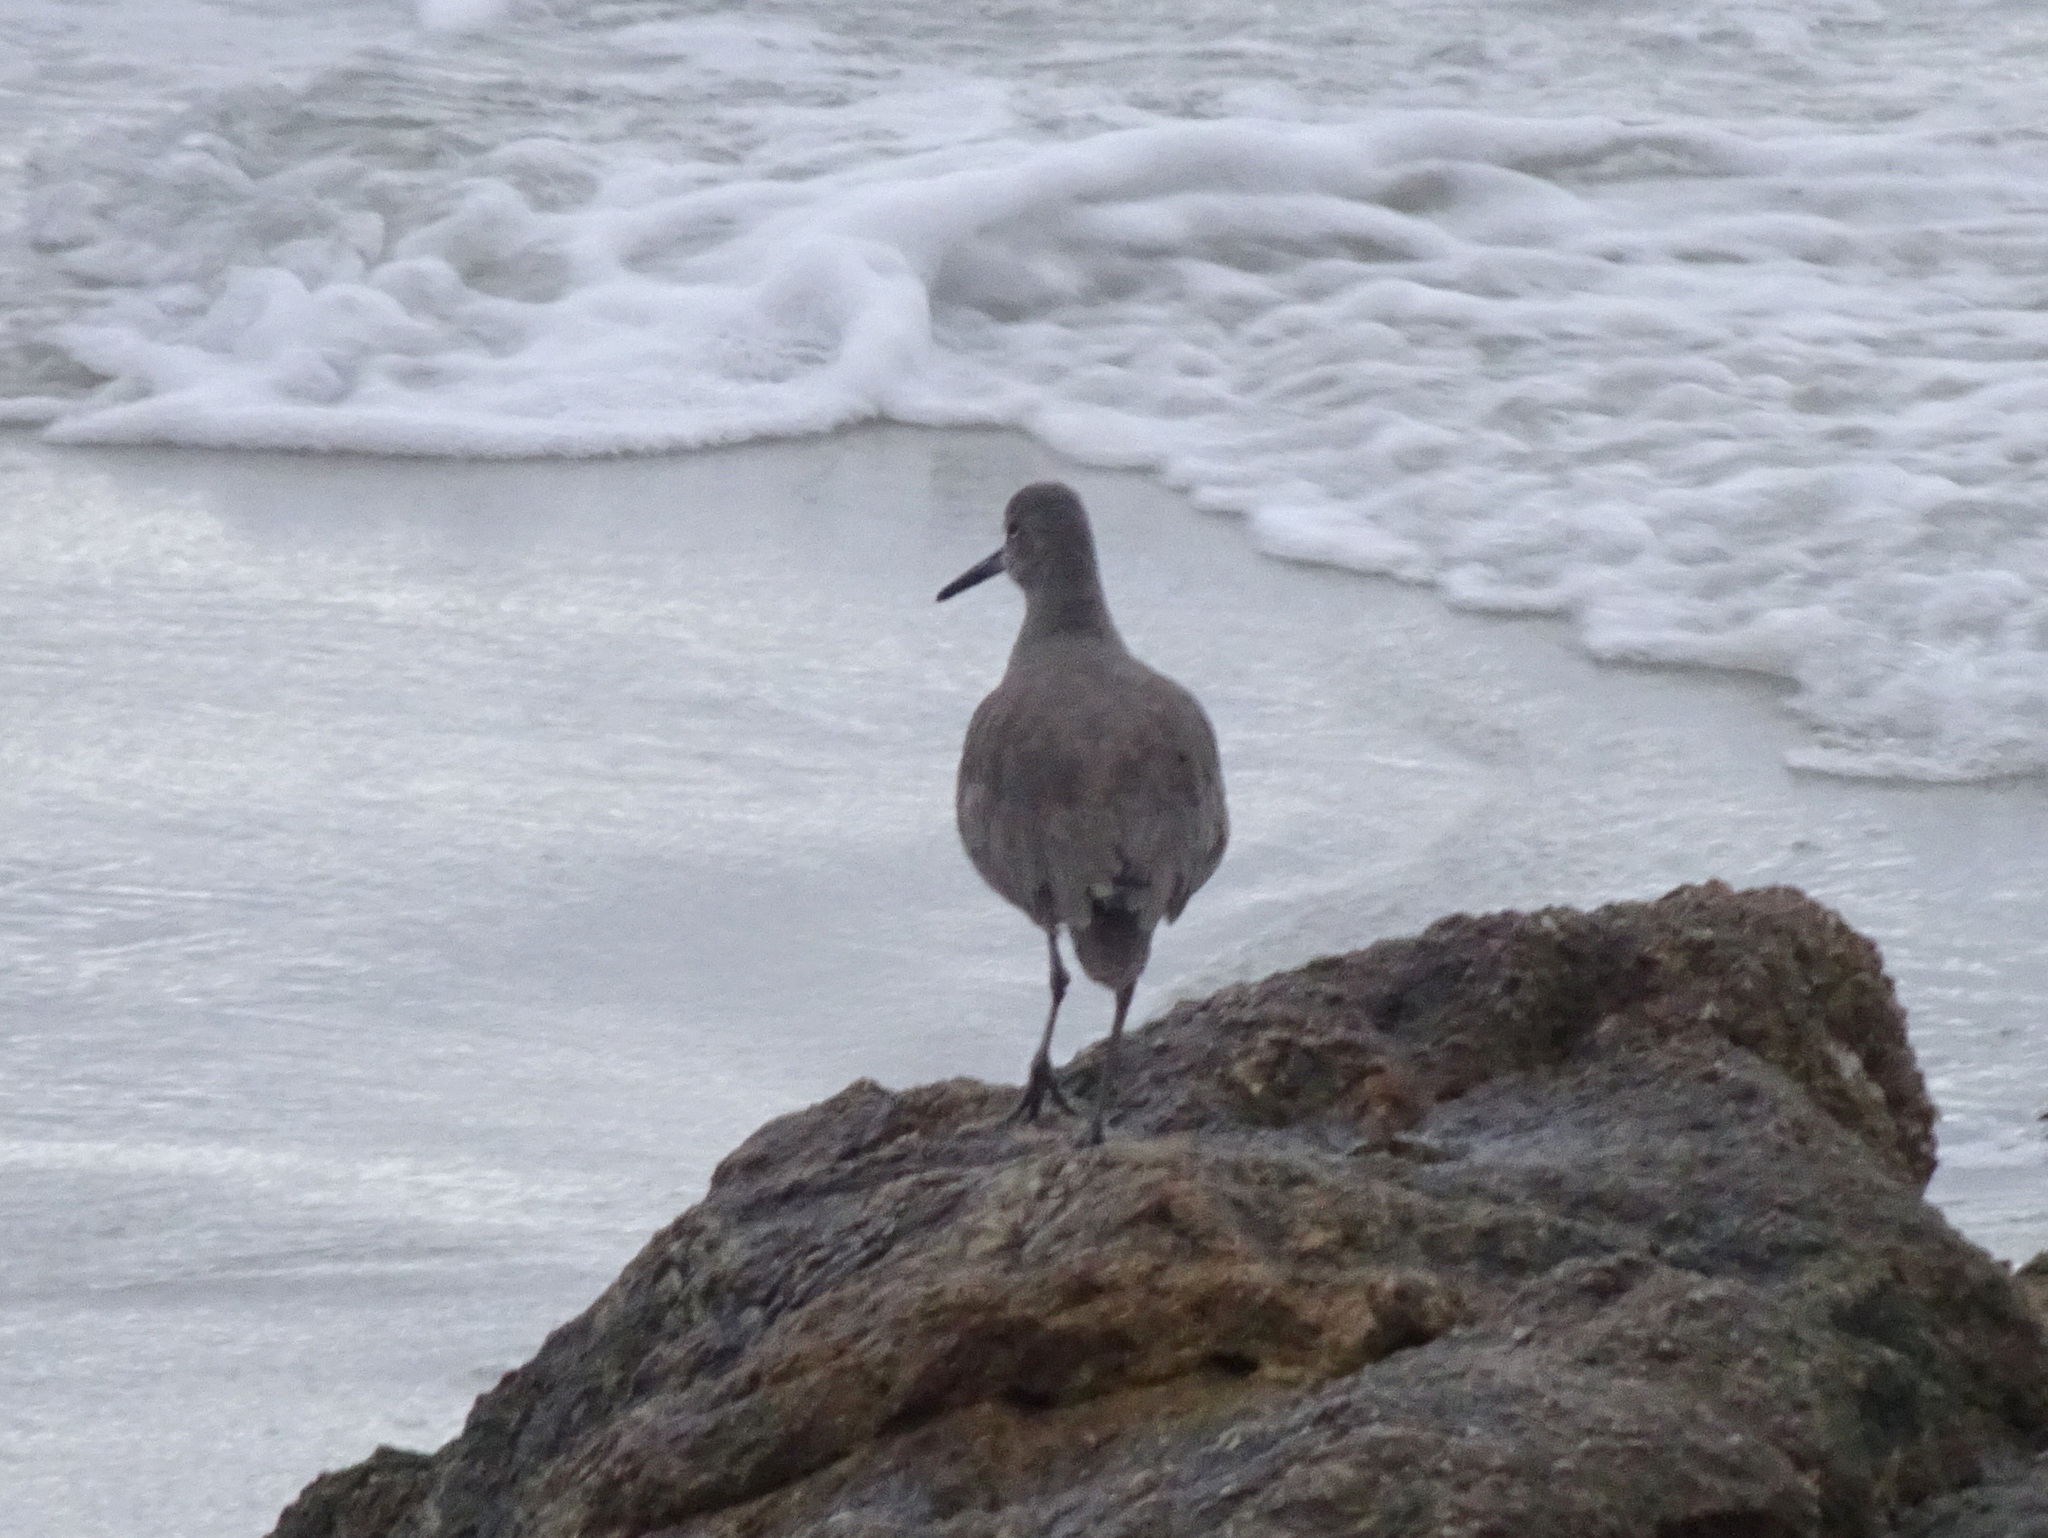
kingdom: Animalia
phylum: Chordata
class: Aves
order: Charadriiformes
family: Scolopacidae
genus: Tringa
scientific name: Tringa semipalmata
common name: Willet
